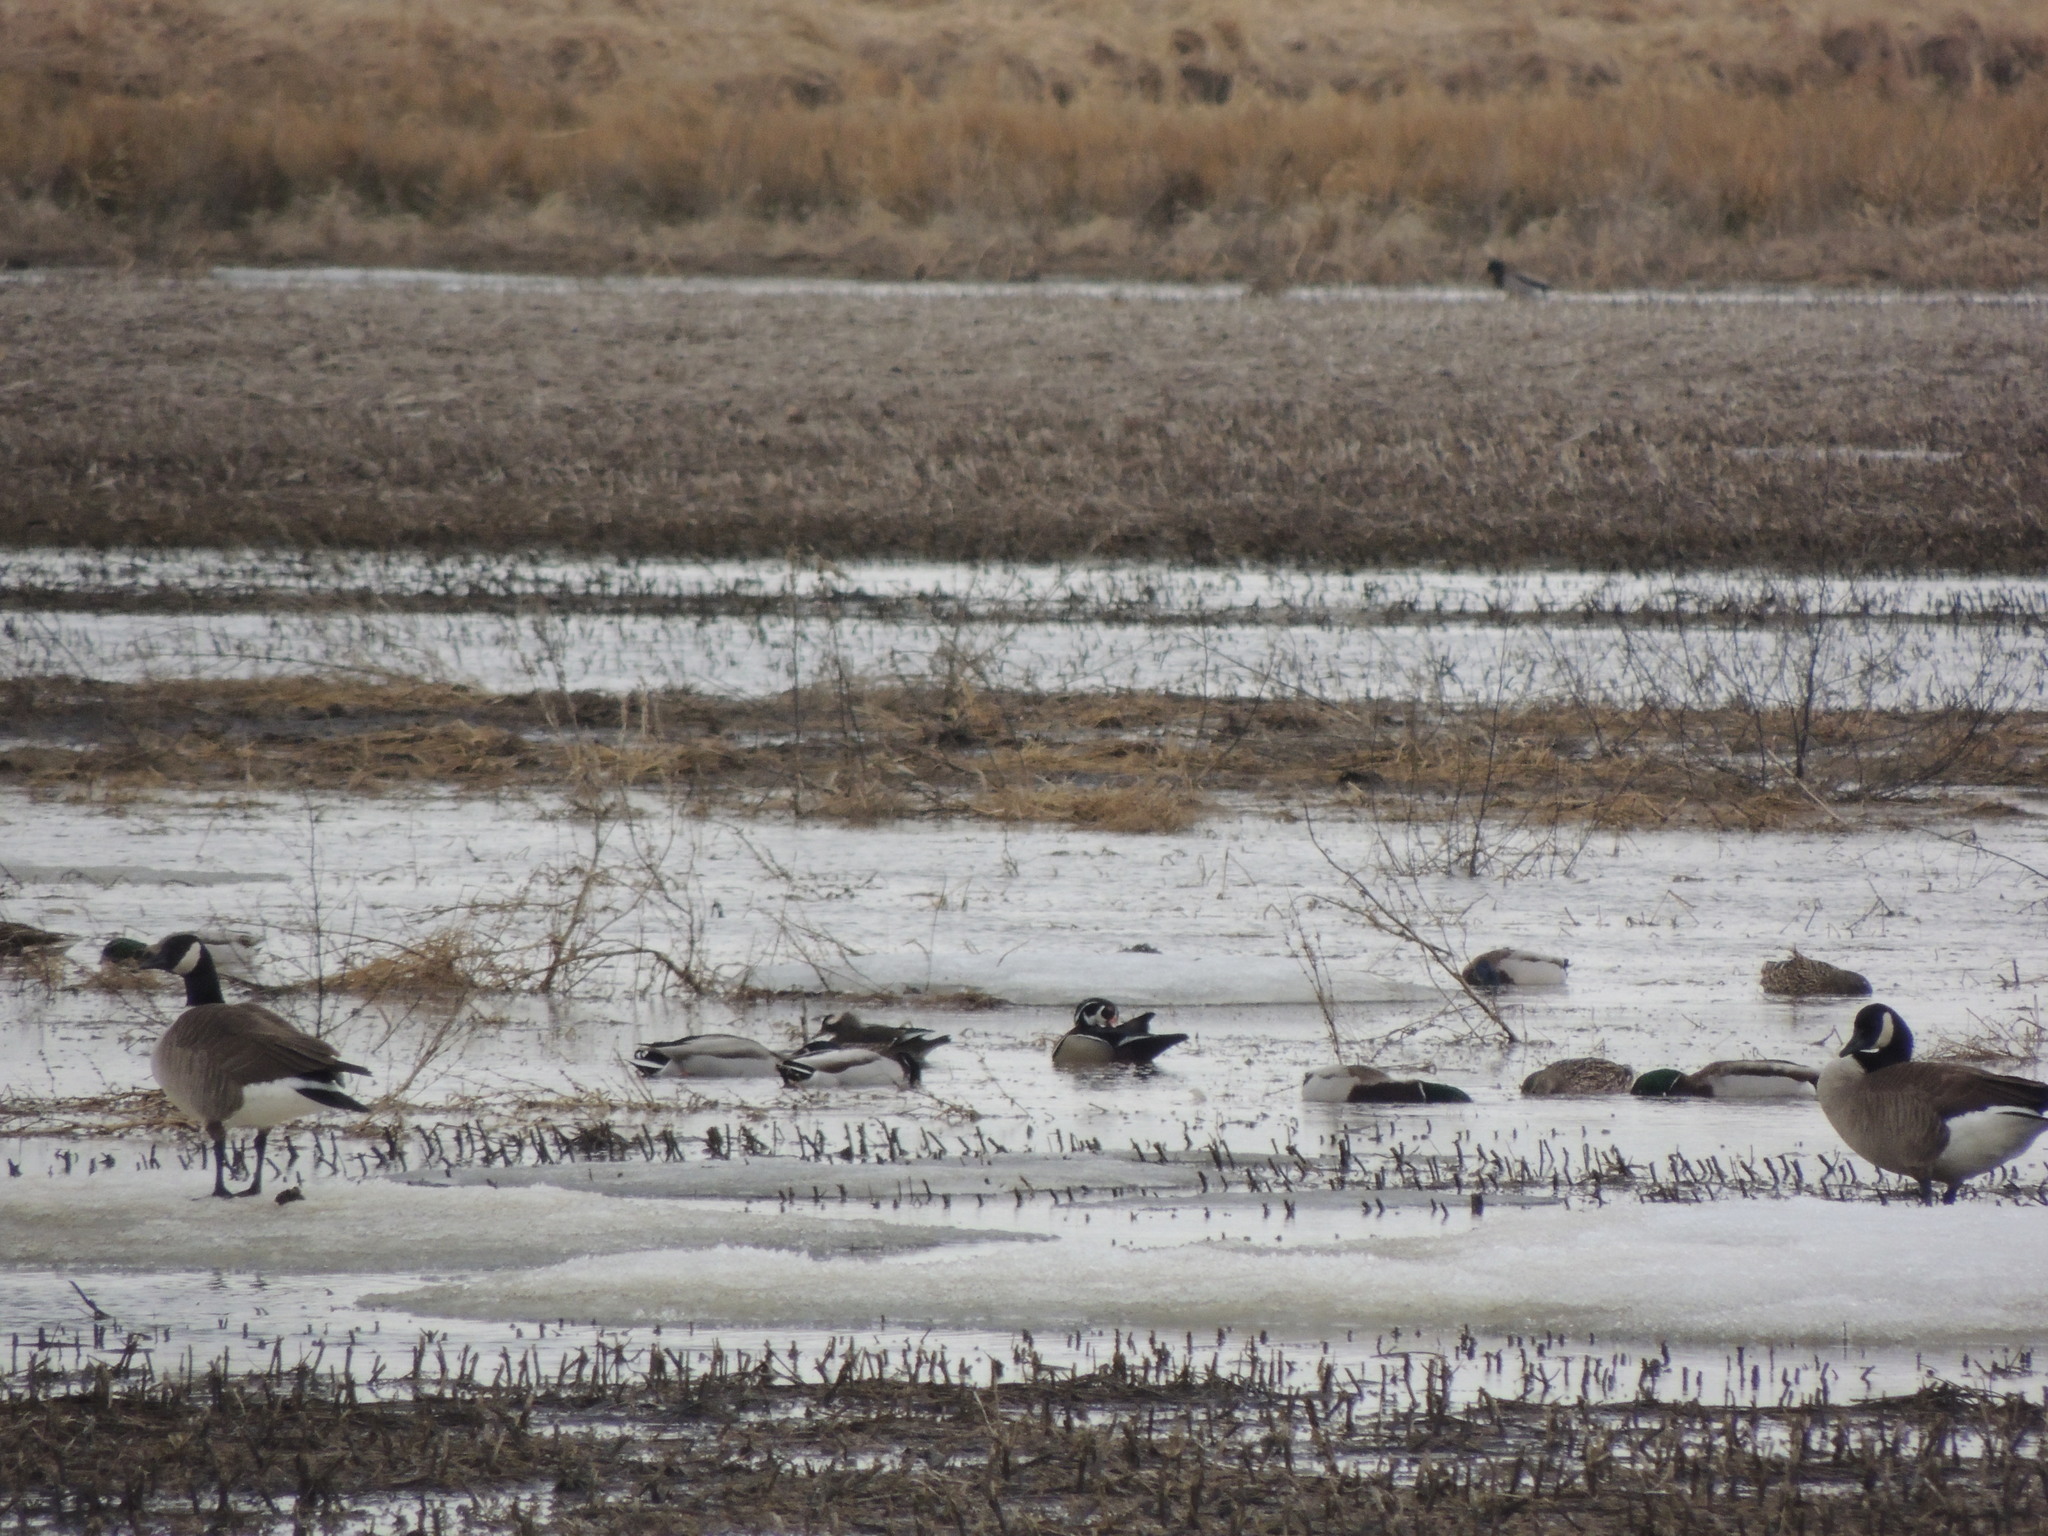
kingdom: Animalia
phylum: Chordata
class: Aves
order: Anseriformes
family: Anatidae
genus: Aix
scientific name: Aix sponsa
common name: Wood duck
